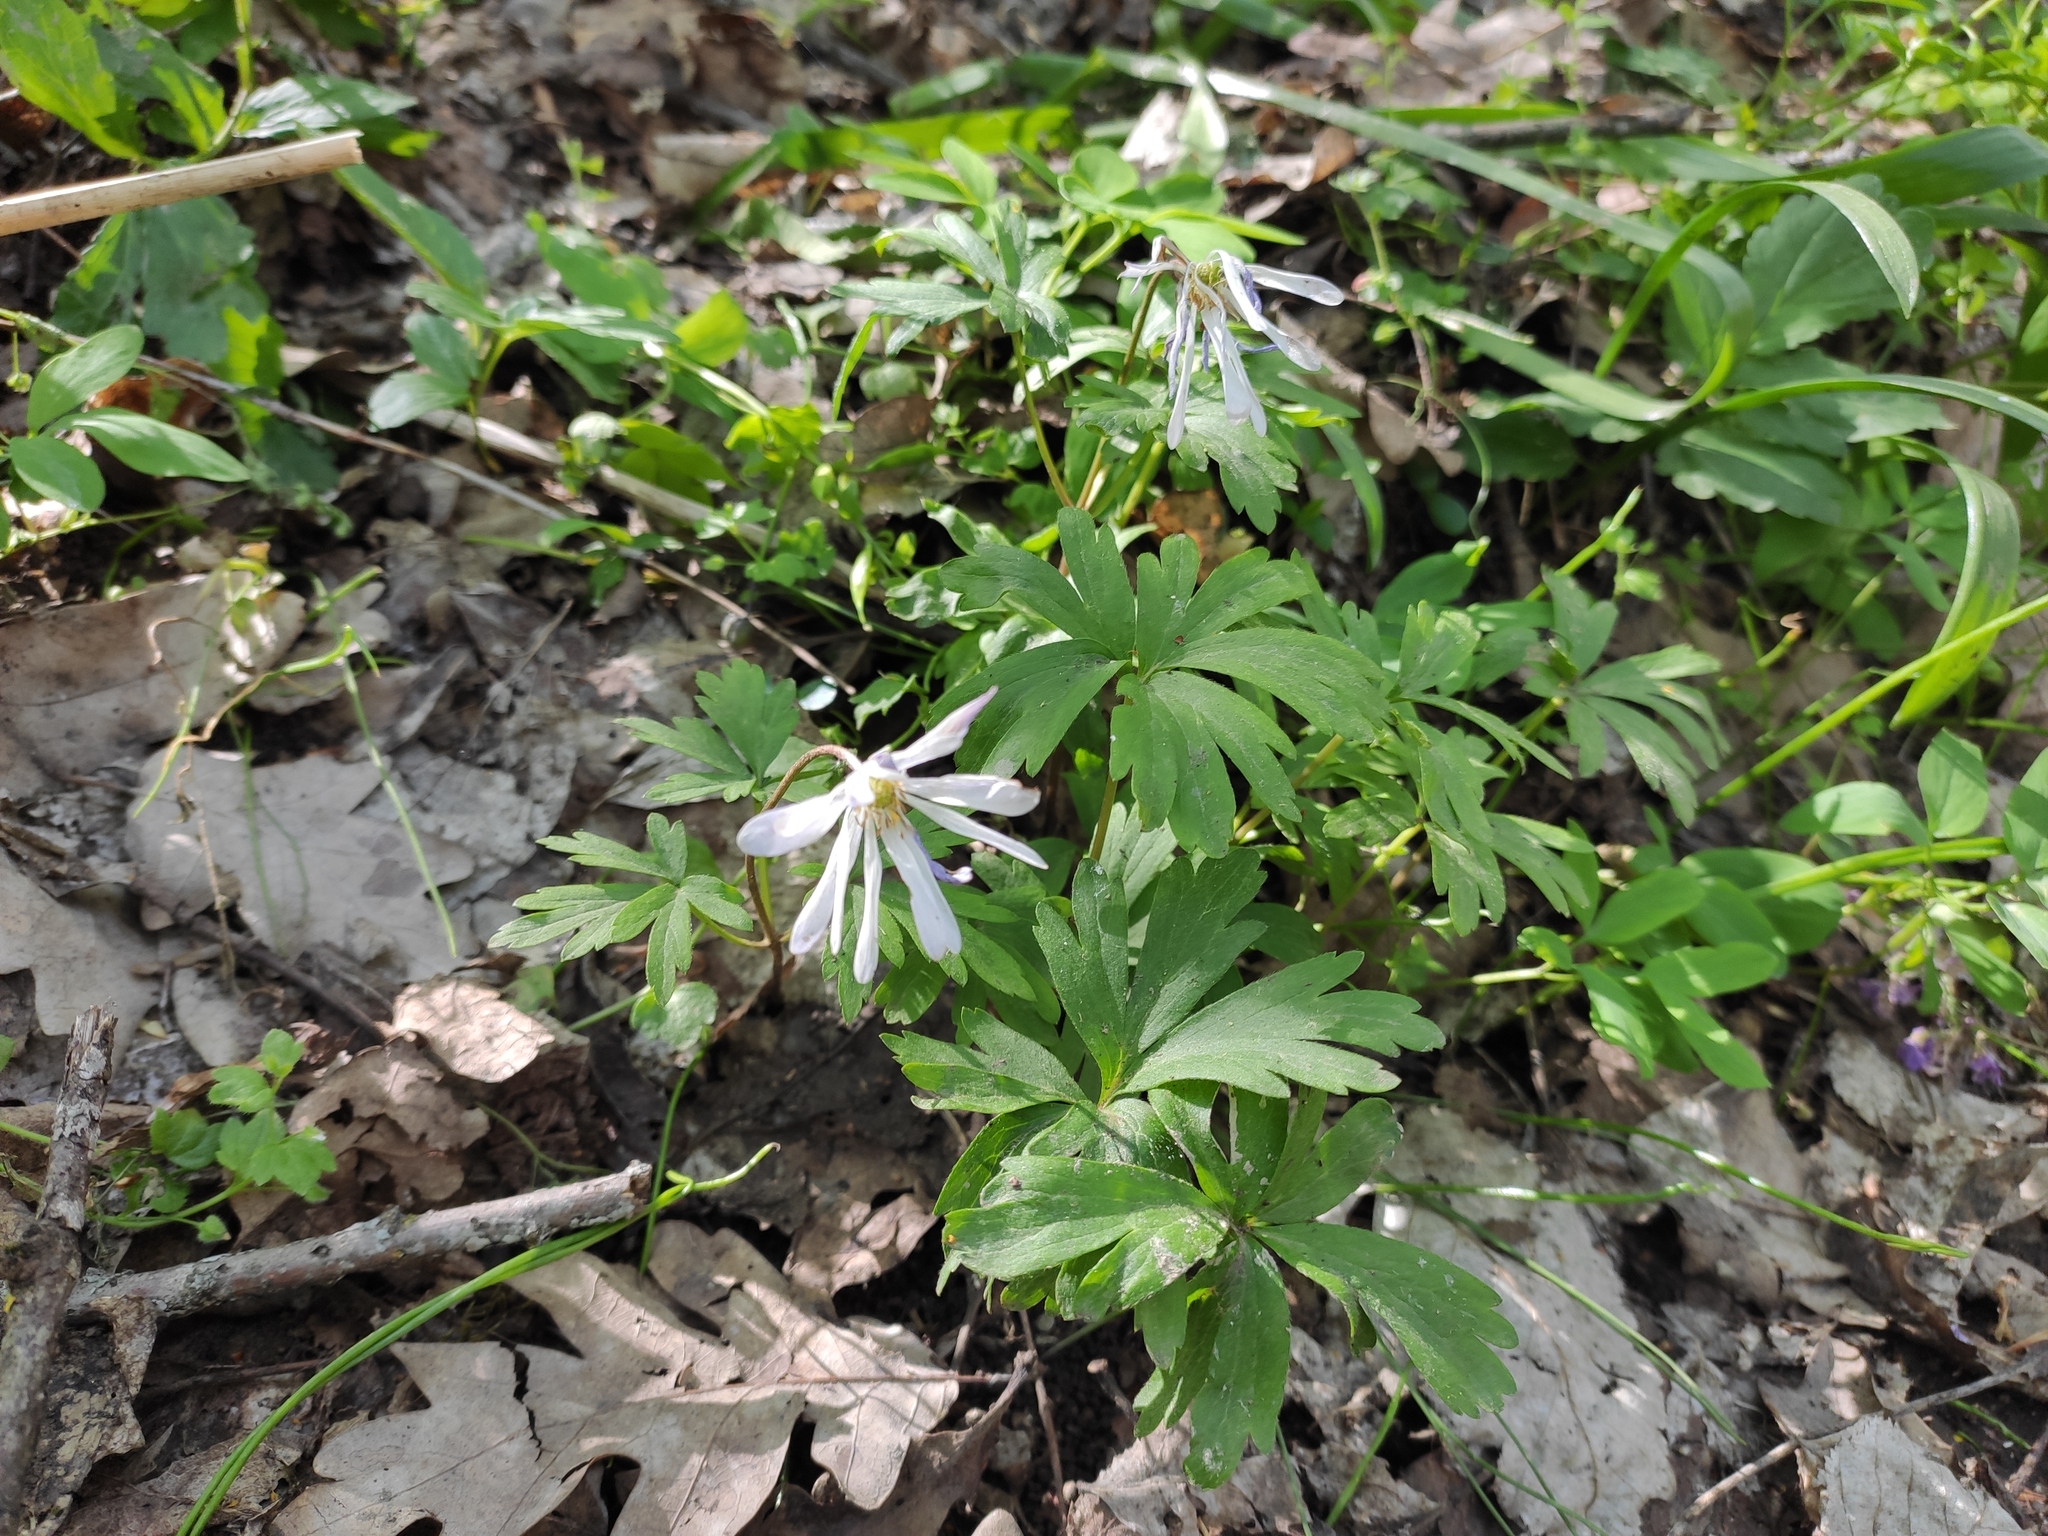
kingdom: Plantae
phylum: Tracheophyta
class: Magnoliopsida
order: Ranunculales
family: Ranunculaceae
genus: Anemone
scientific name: Anemone blanda
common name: Balkan anemone
